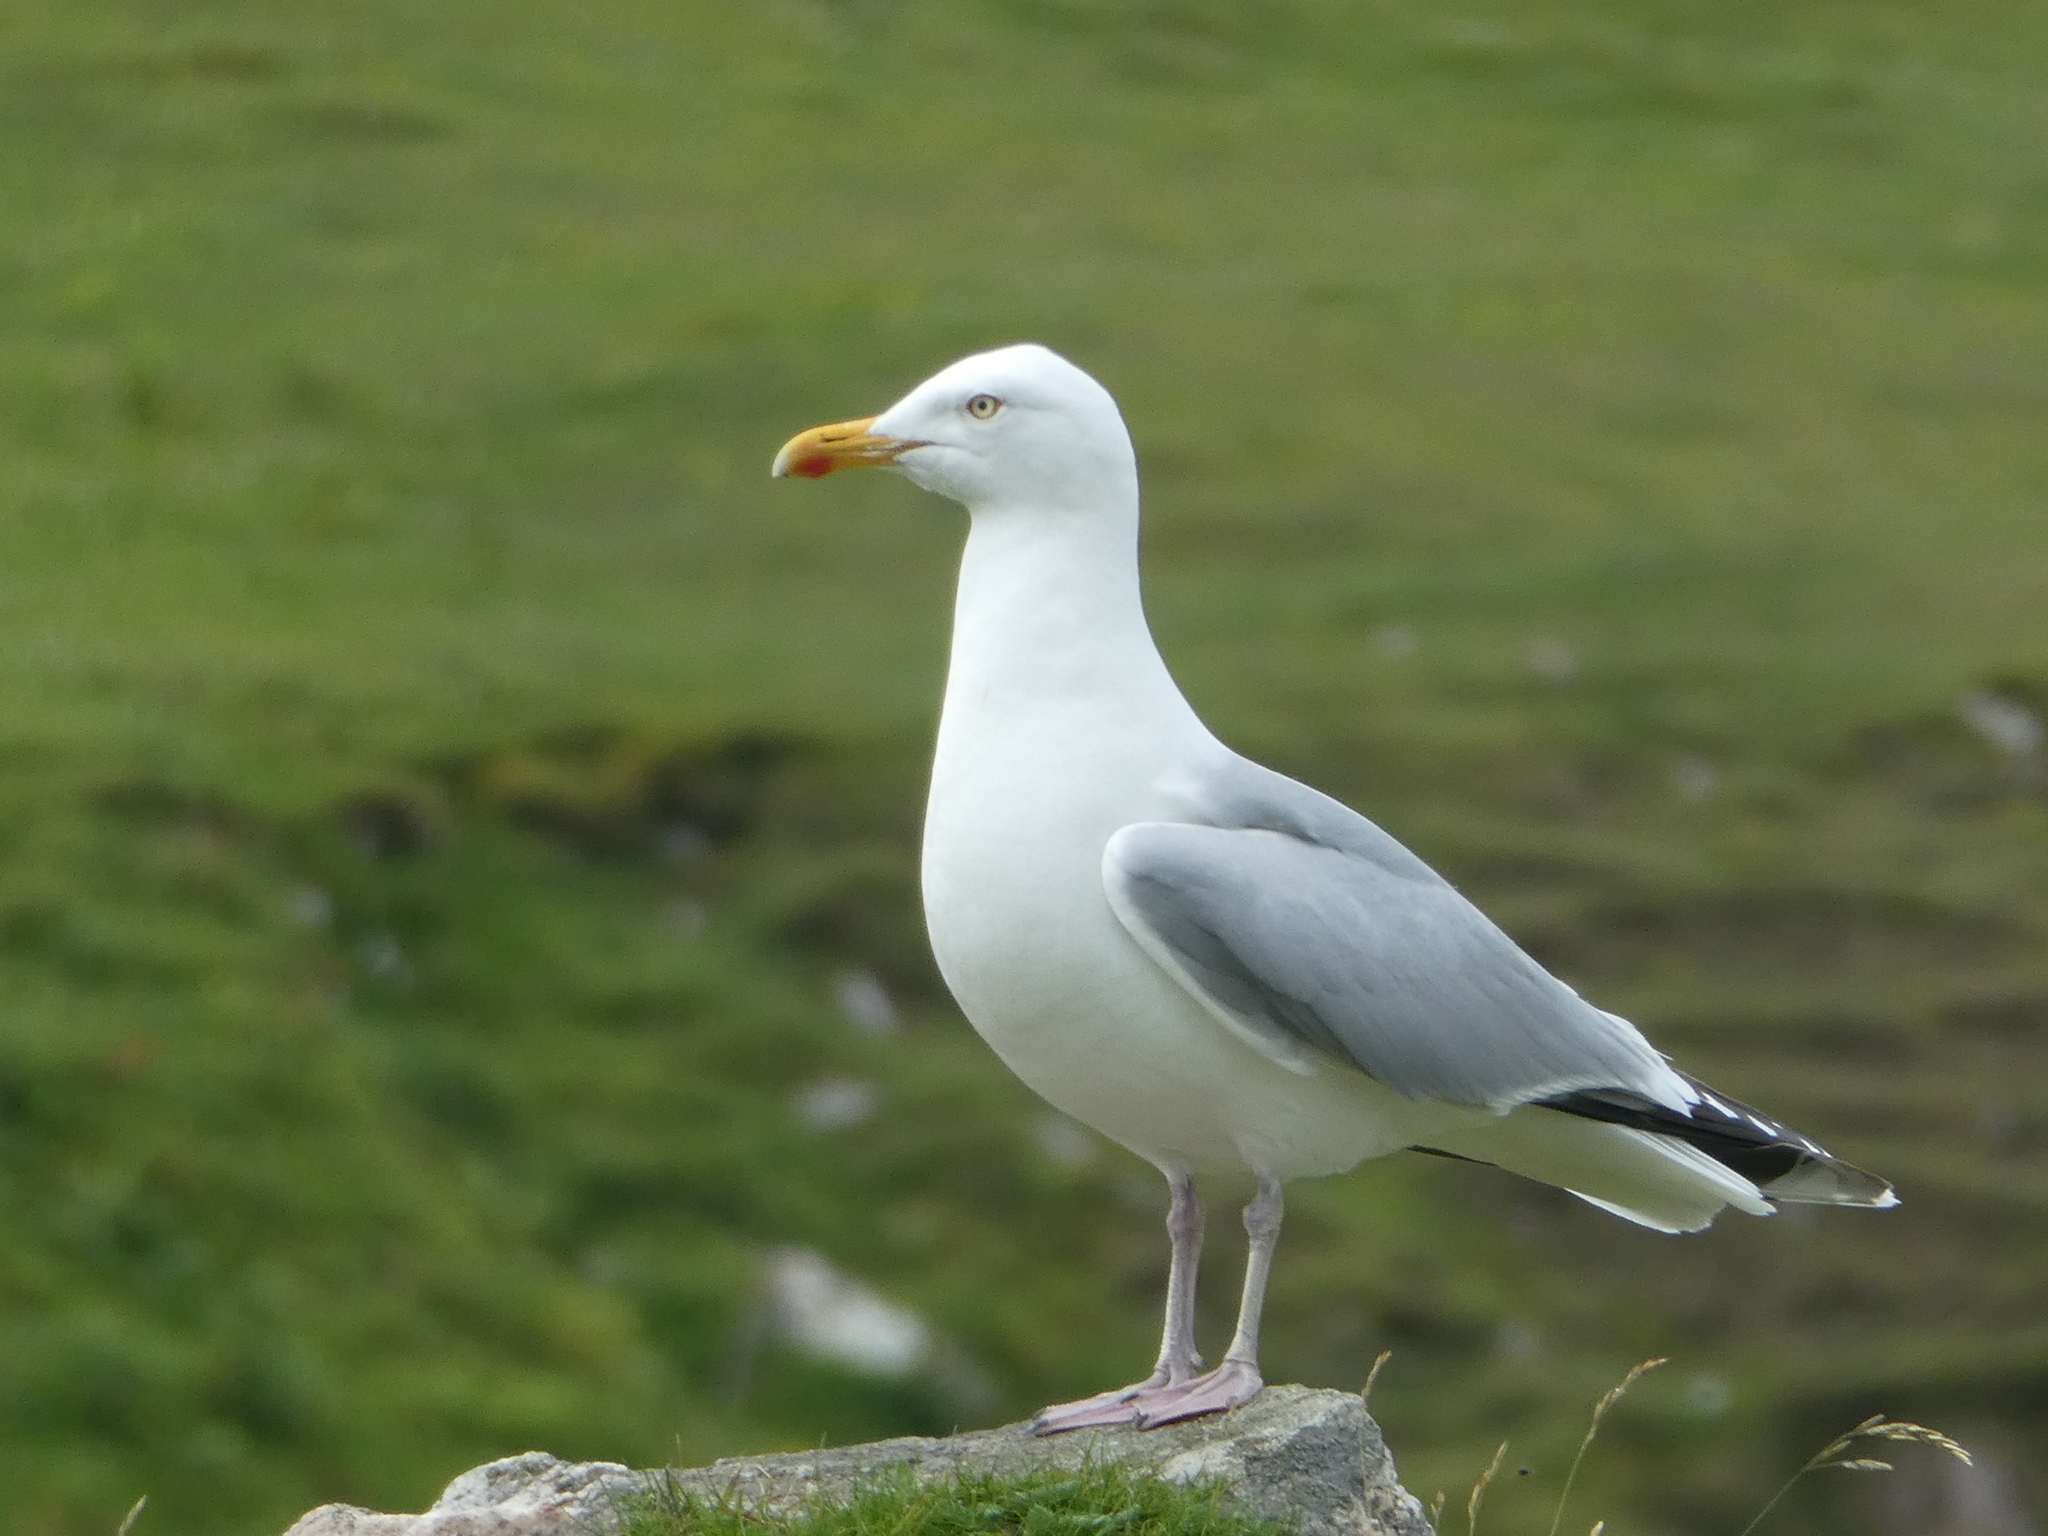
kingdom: Animalia
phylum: Chordata
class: Aves
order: Charadriiformes
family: Laridae
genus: Larus
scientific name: Larus argentatus
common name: Herring gull
